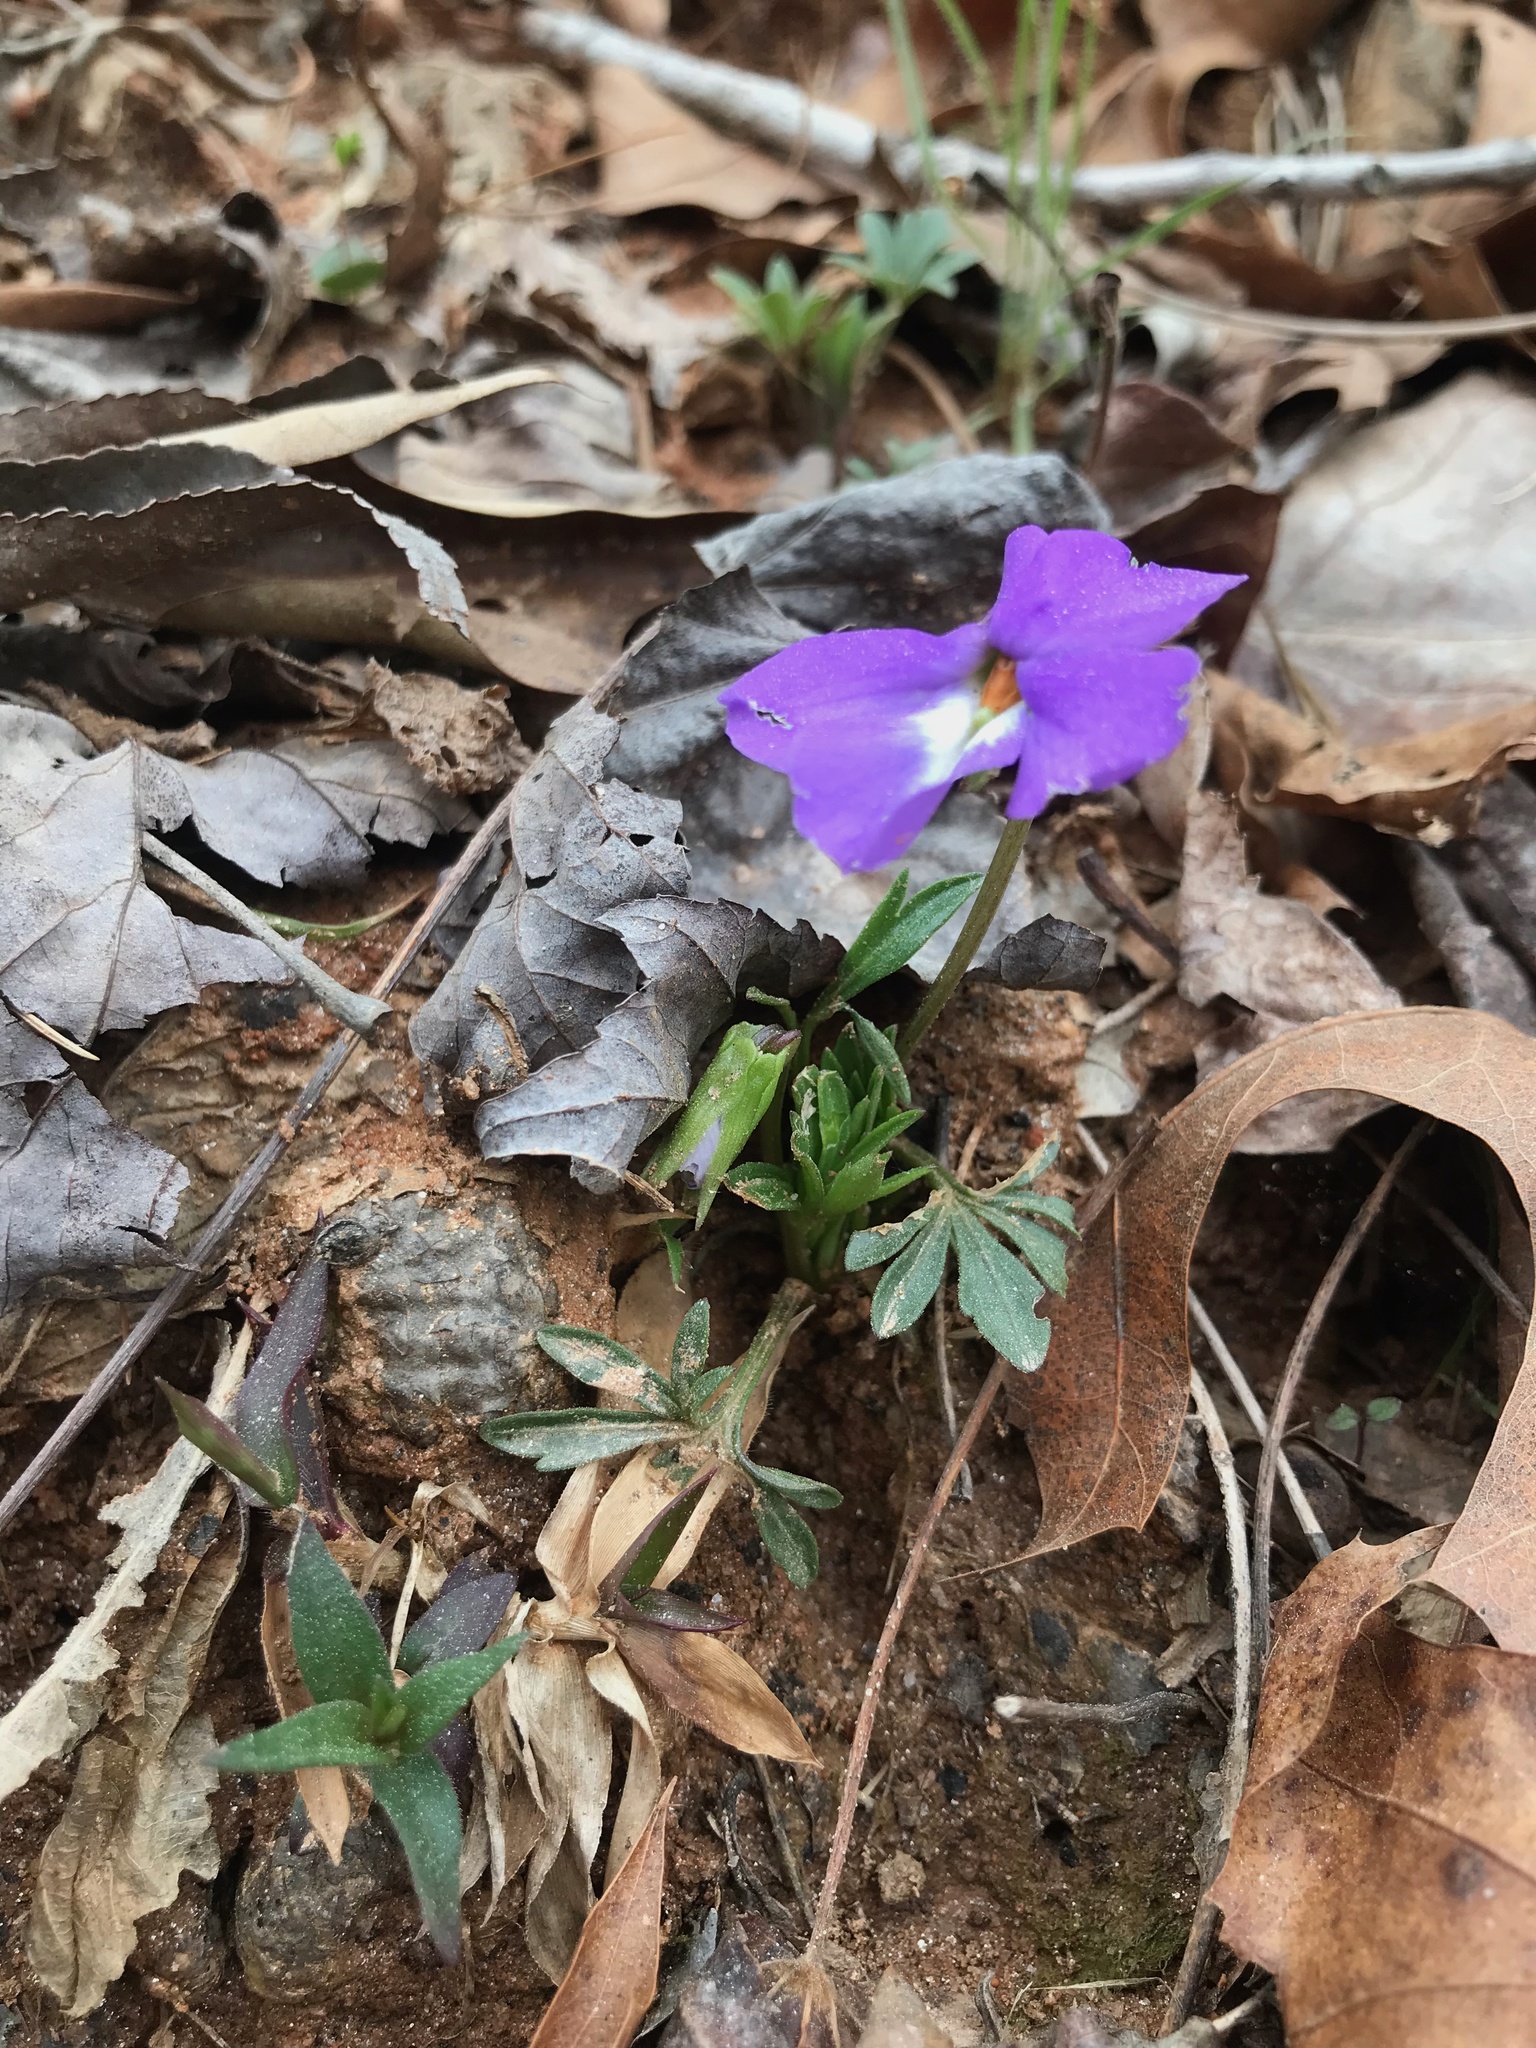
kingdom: Plantae
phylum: Tracheophyta
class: Magnoliopsida
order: Malpighiales
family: Violaceae
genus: Viola
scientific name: Viola pedata
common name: Pansy violet
